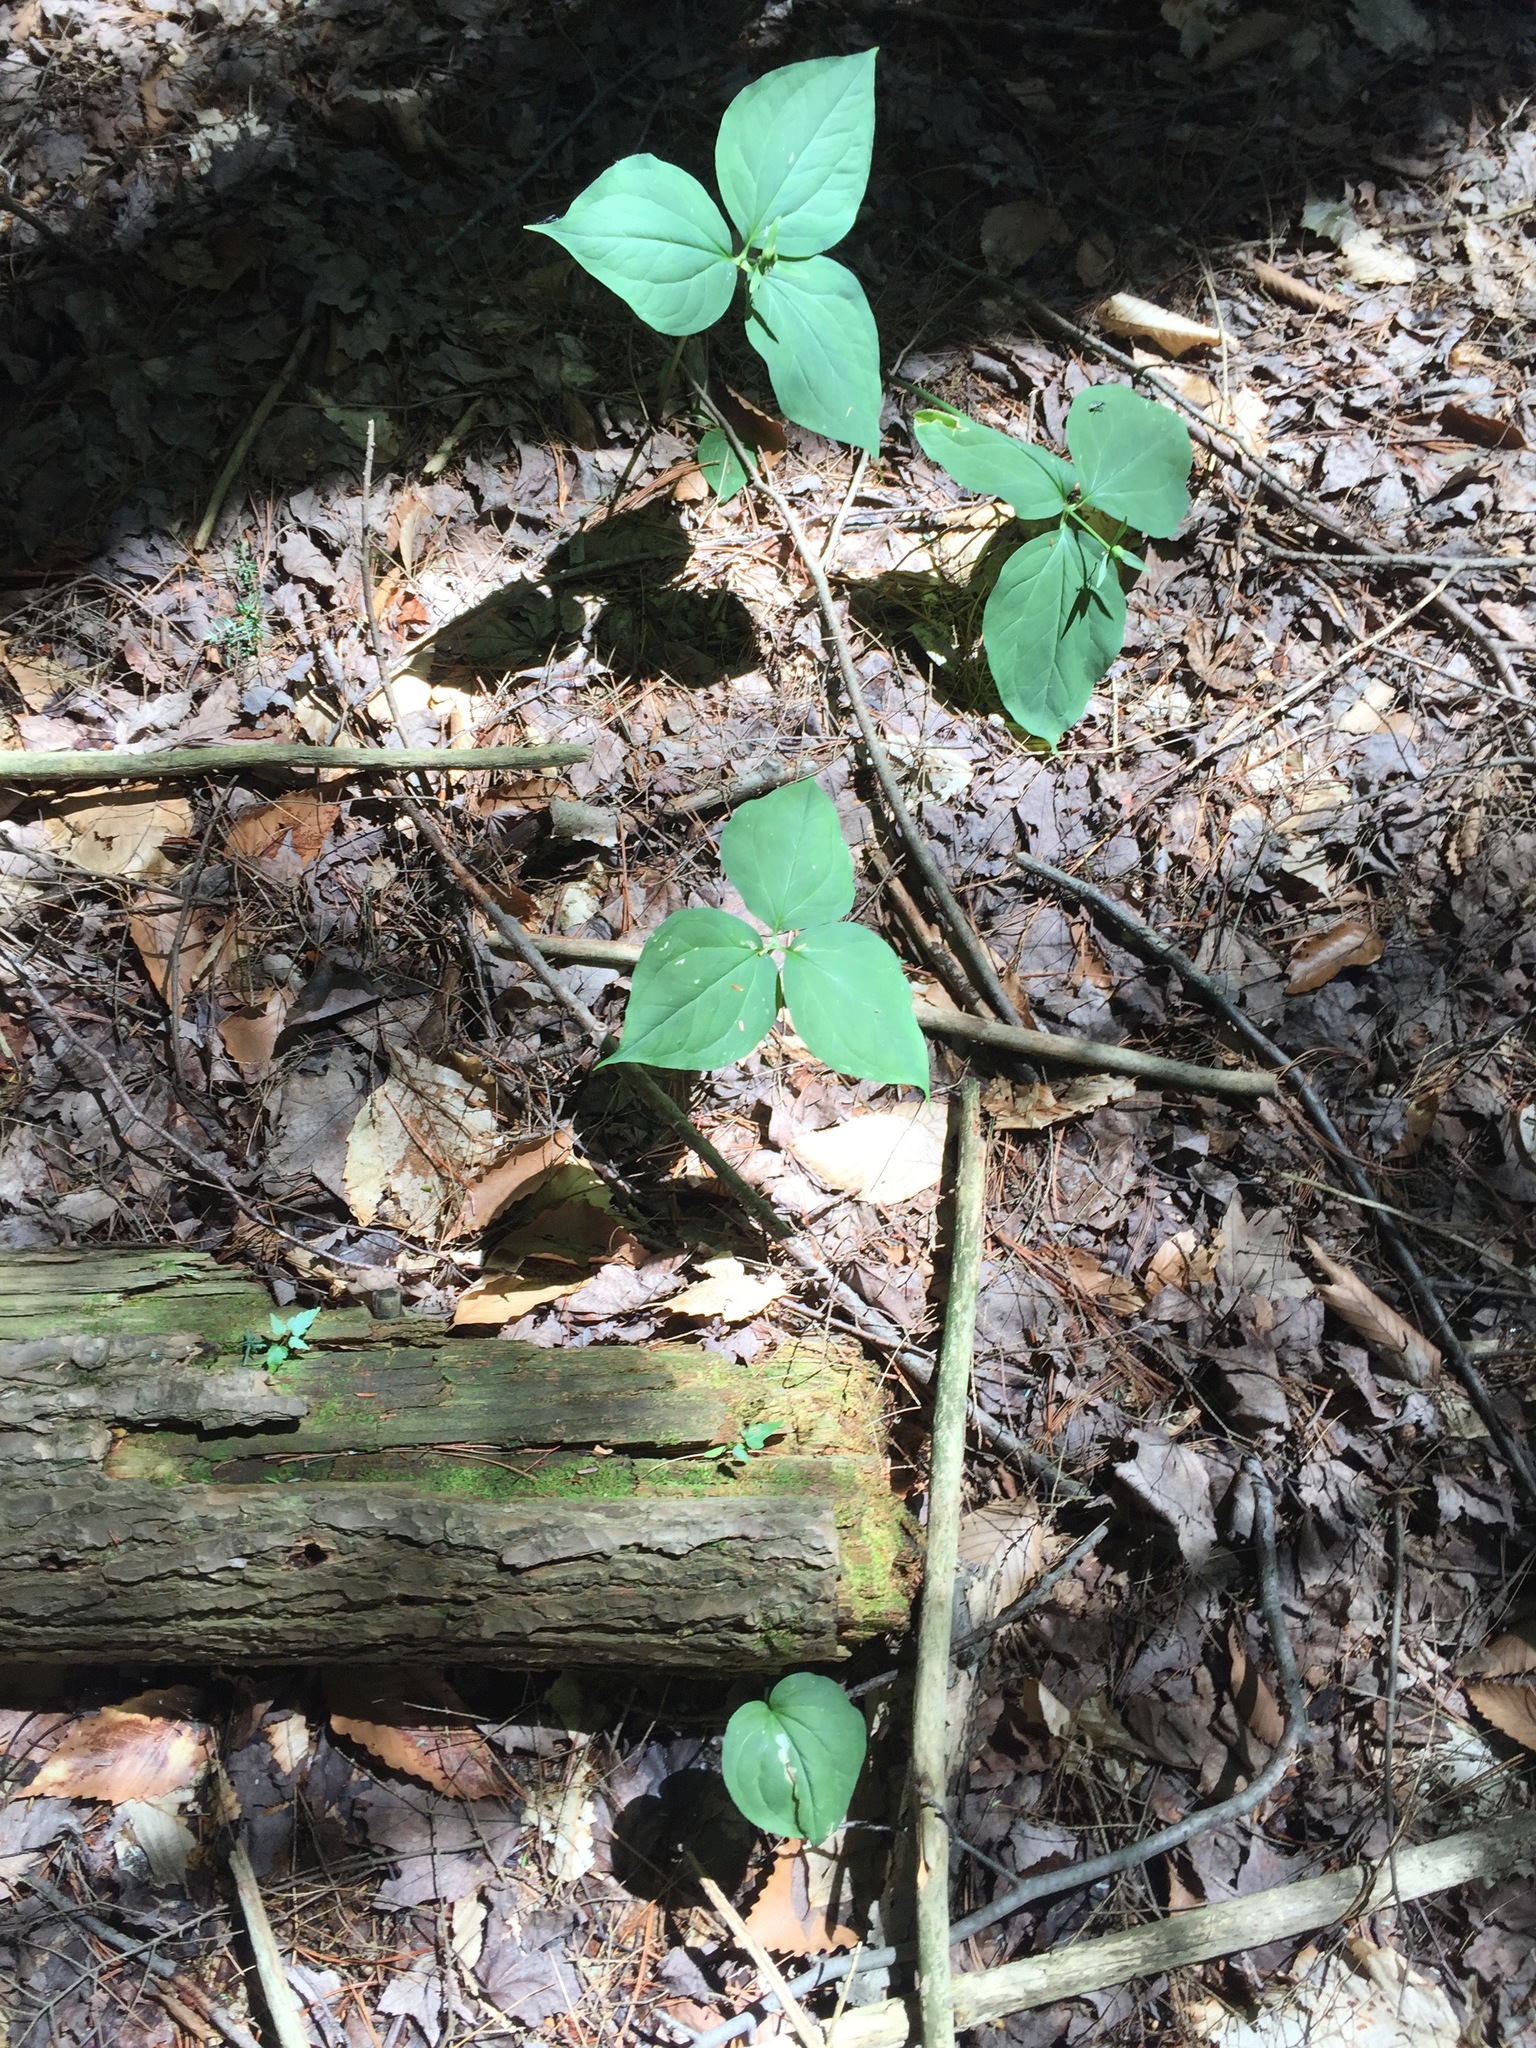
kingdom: Plantae
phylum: Tracheophyta
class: Liliopsida
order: Liliales
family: Melanthiaceae
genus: Trillium
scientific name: Trillium undulatum
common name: Paint trillium
